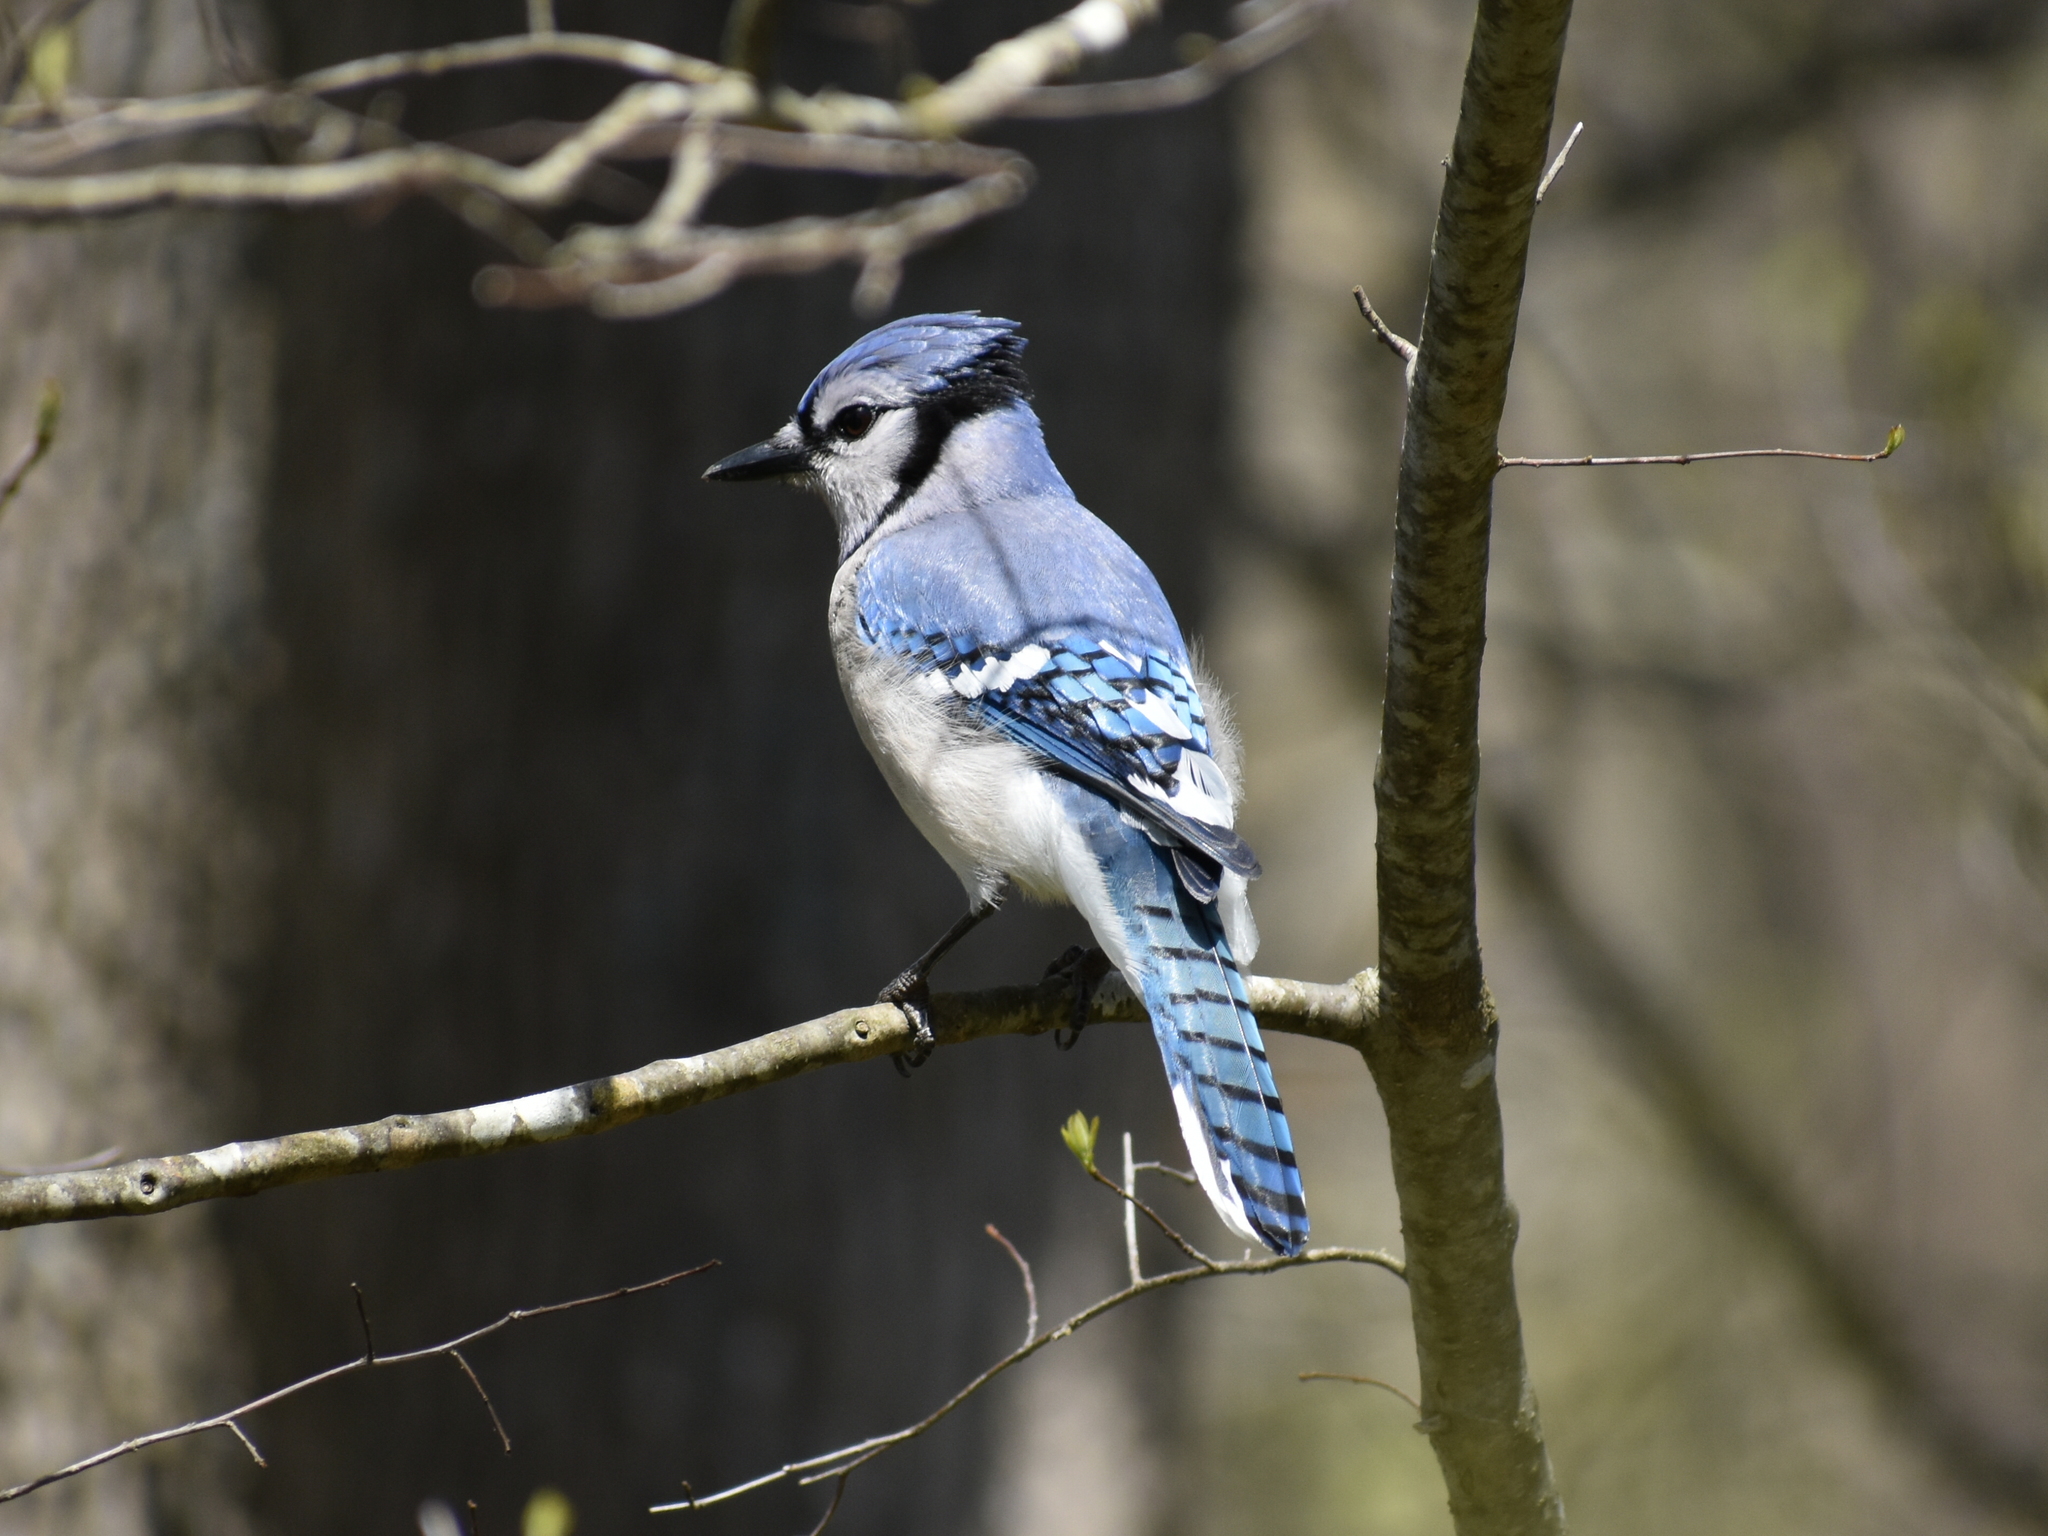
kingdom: Animalia
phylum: Chordata
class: Aves
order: Passeriformes
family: Corvidae
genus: Cyanocitta
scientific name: Cyanocitta cristata
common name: Blue jay
